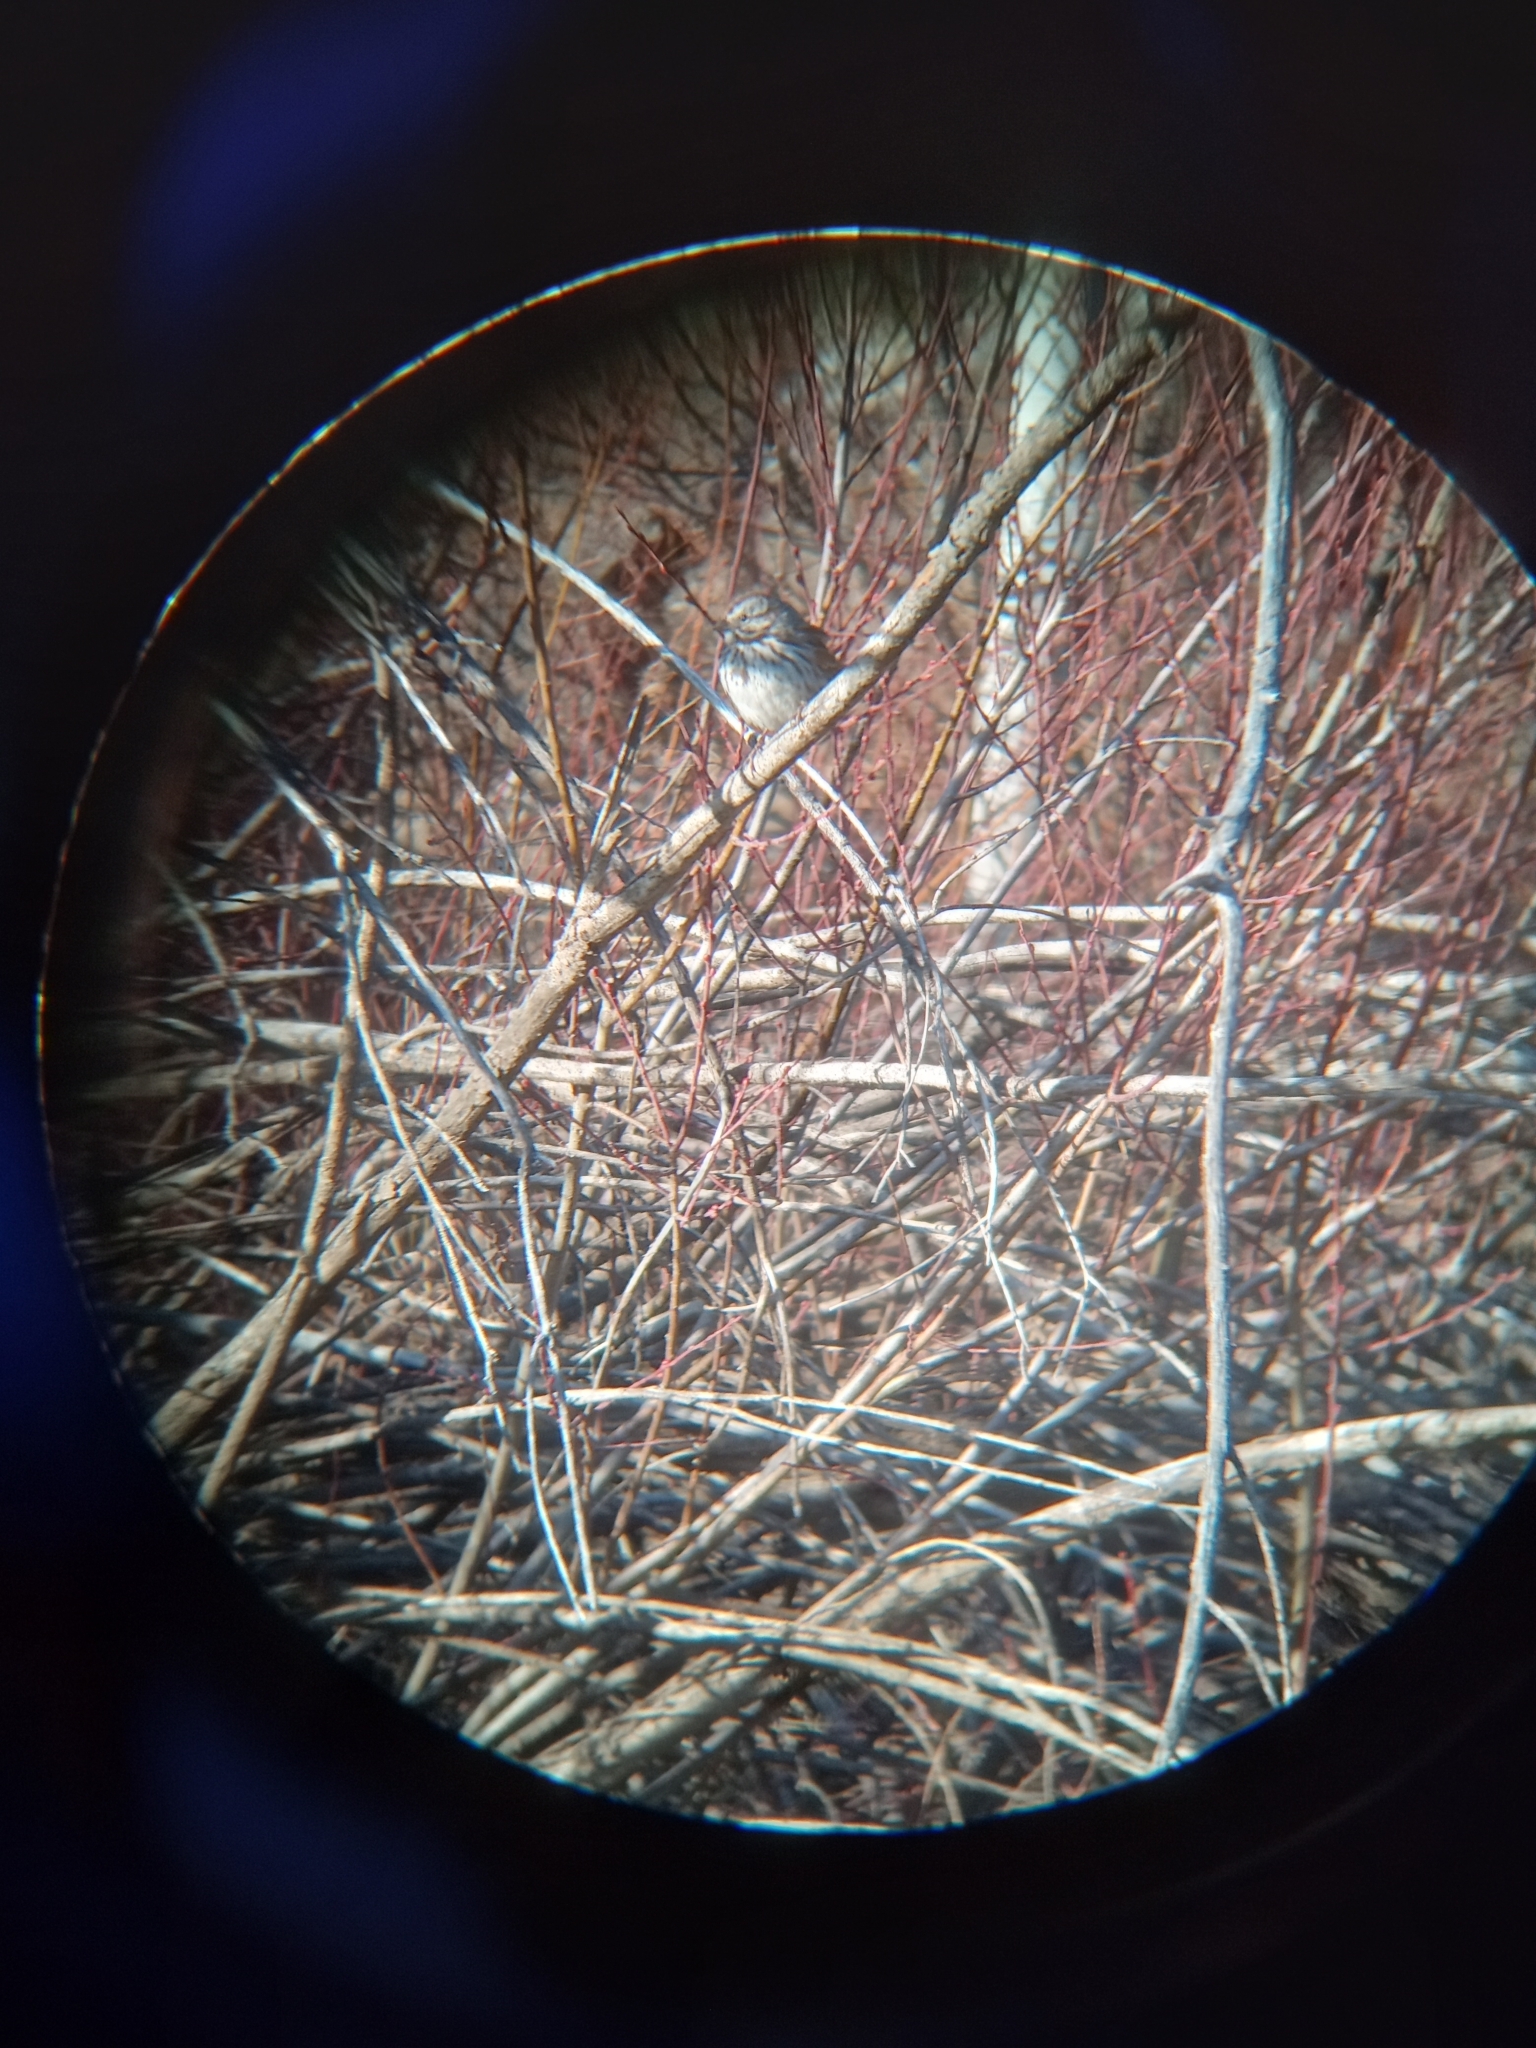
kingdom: Animalia
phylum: Chordata
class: Aves
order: Passeriformes
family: Passerellidae
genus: Melospiza
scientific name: Melospiza melodia
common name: Song sparrow
